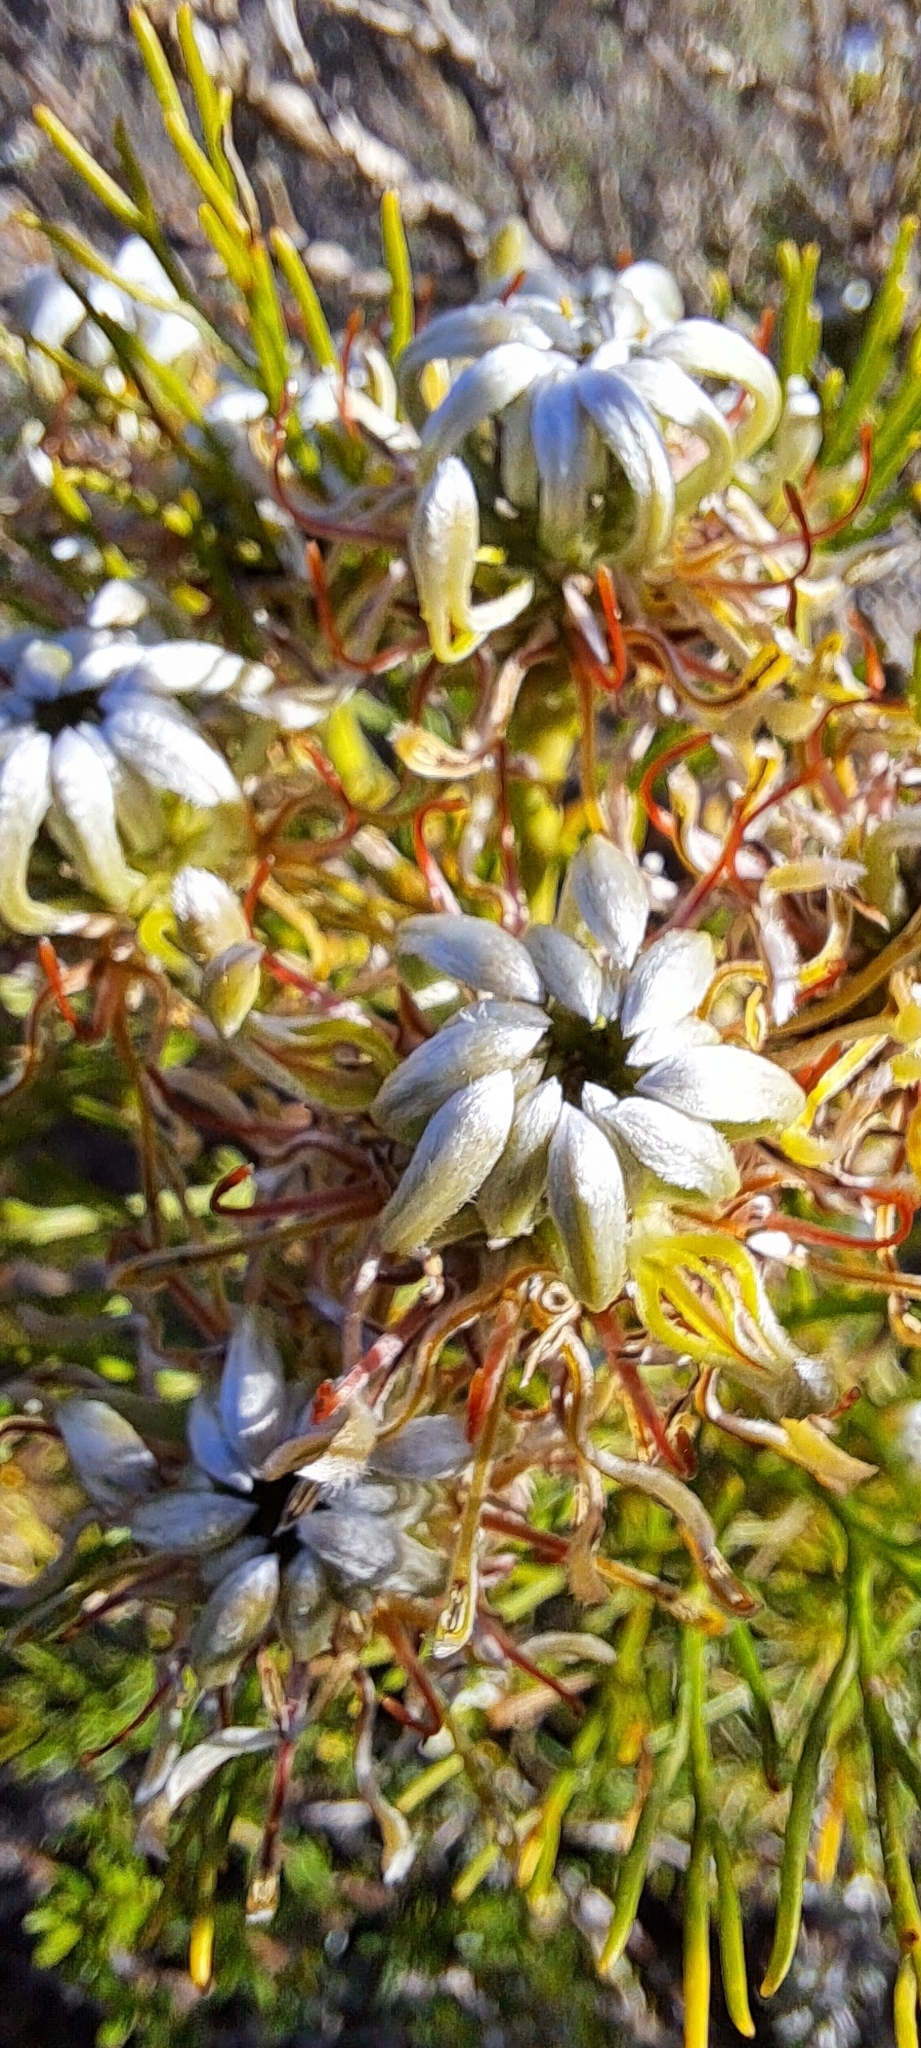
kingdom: Plantae
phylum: Tracheophyta
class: Magnoliopsida
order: Proteales
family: Proteaceae
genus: Serruria
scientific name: Serruria acrocarpa
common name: Common rootstock spiderhead
